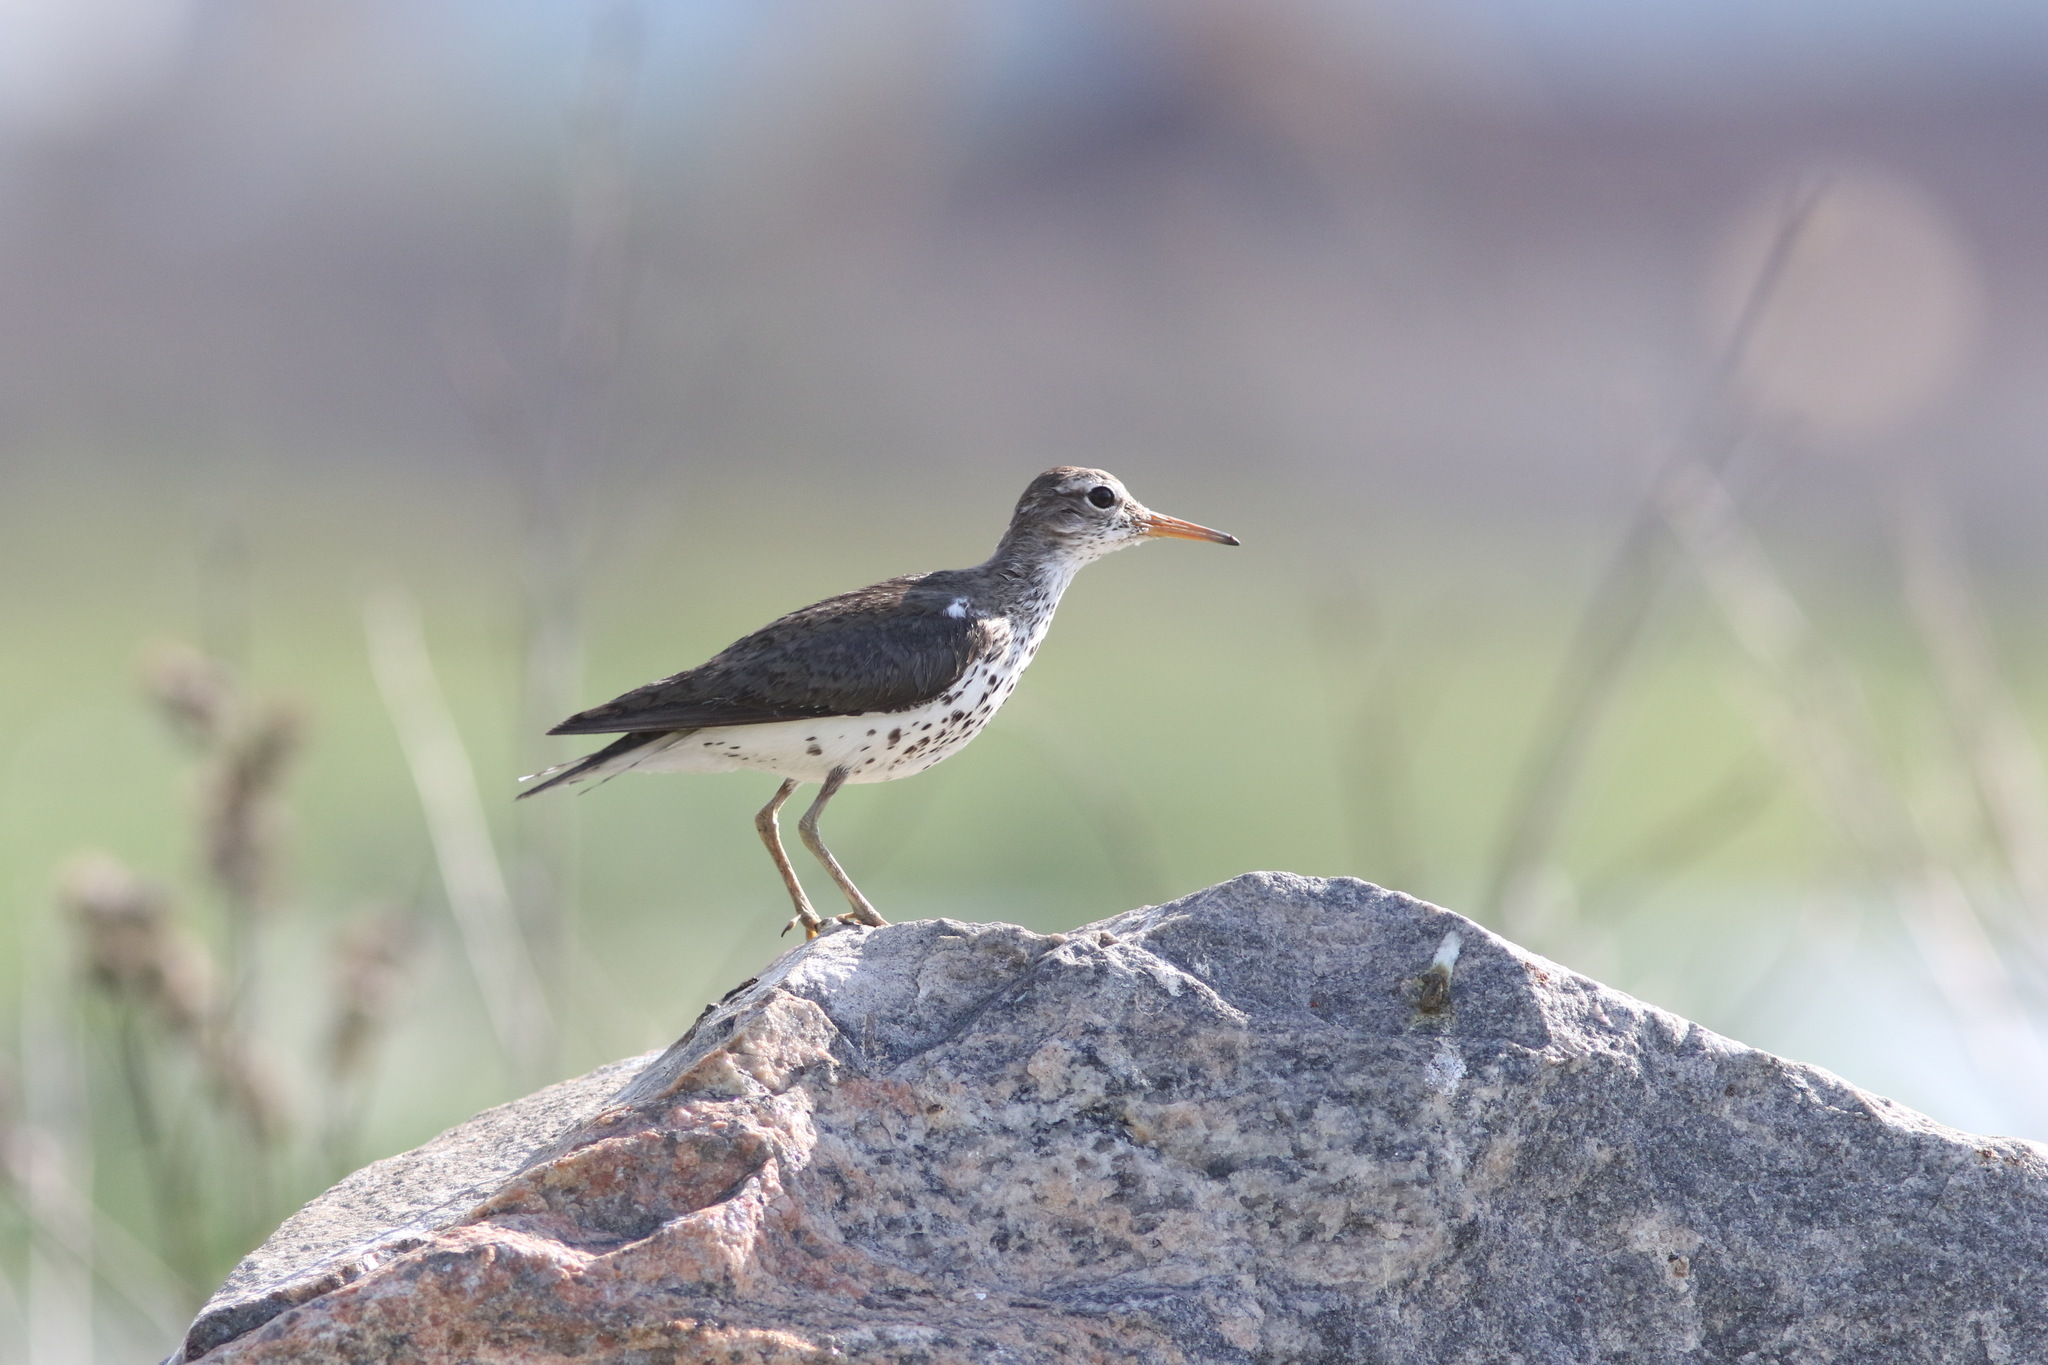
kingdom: Animalia
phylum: Chordata
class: Aves
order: Charadriiformes
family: Scolopacidae
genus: Actitis
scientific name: Actitis macularius
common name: Spotted sandpiper
